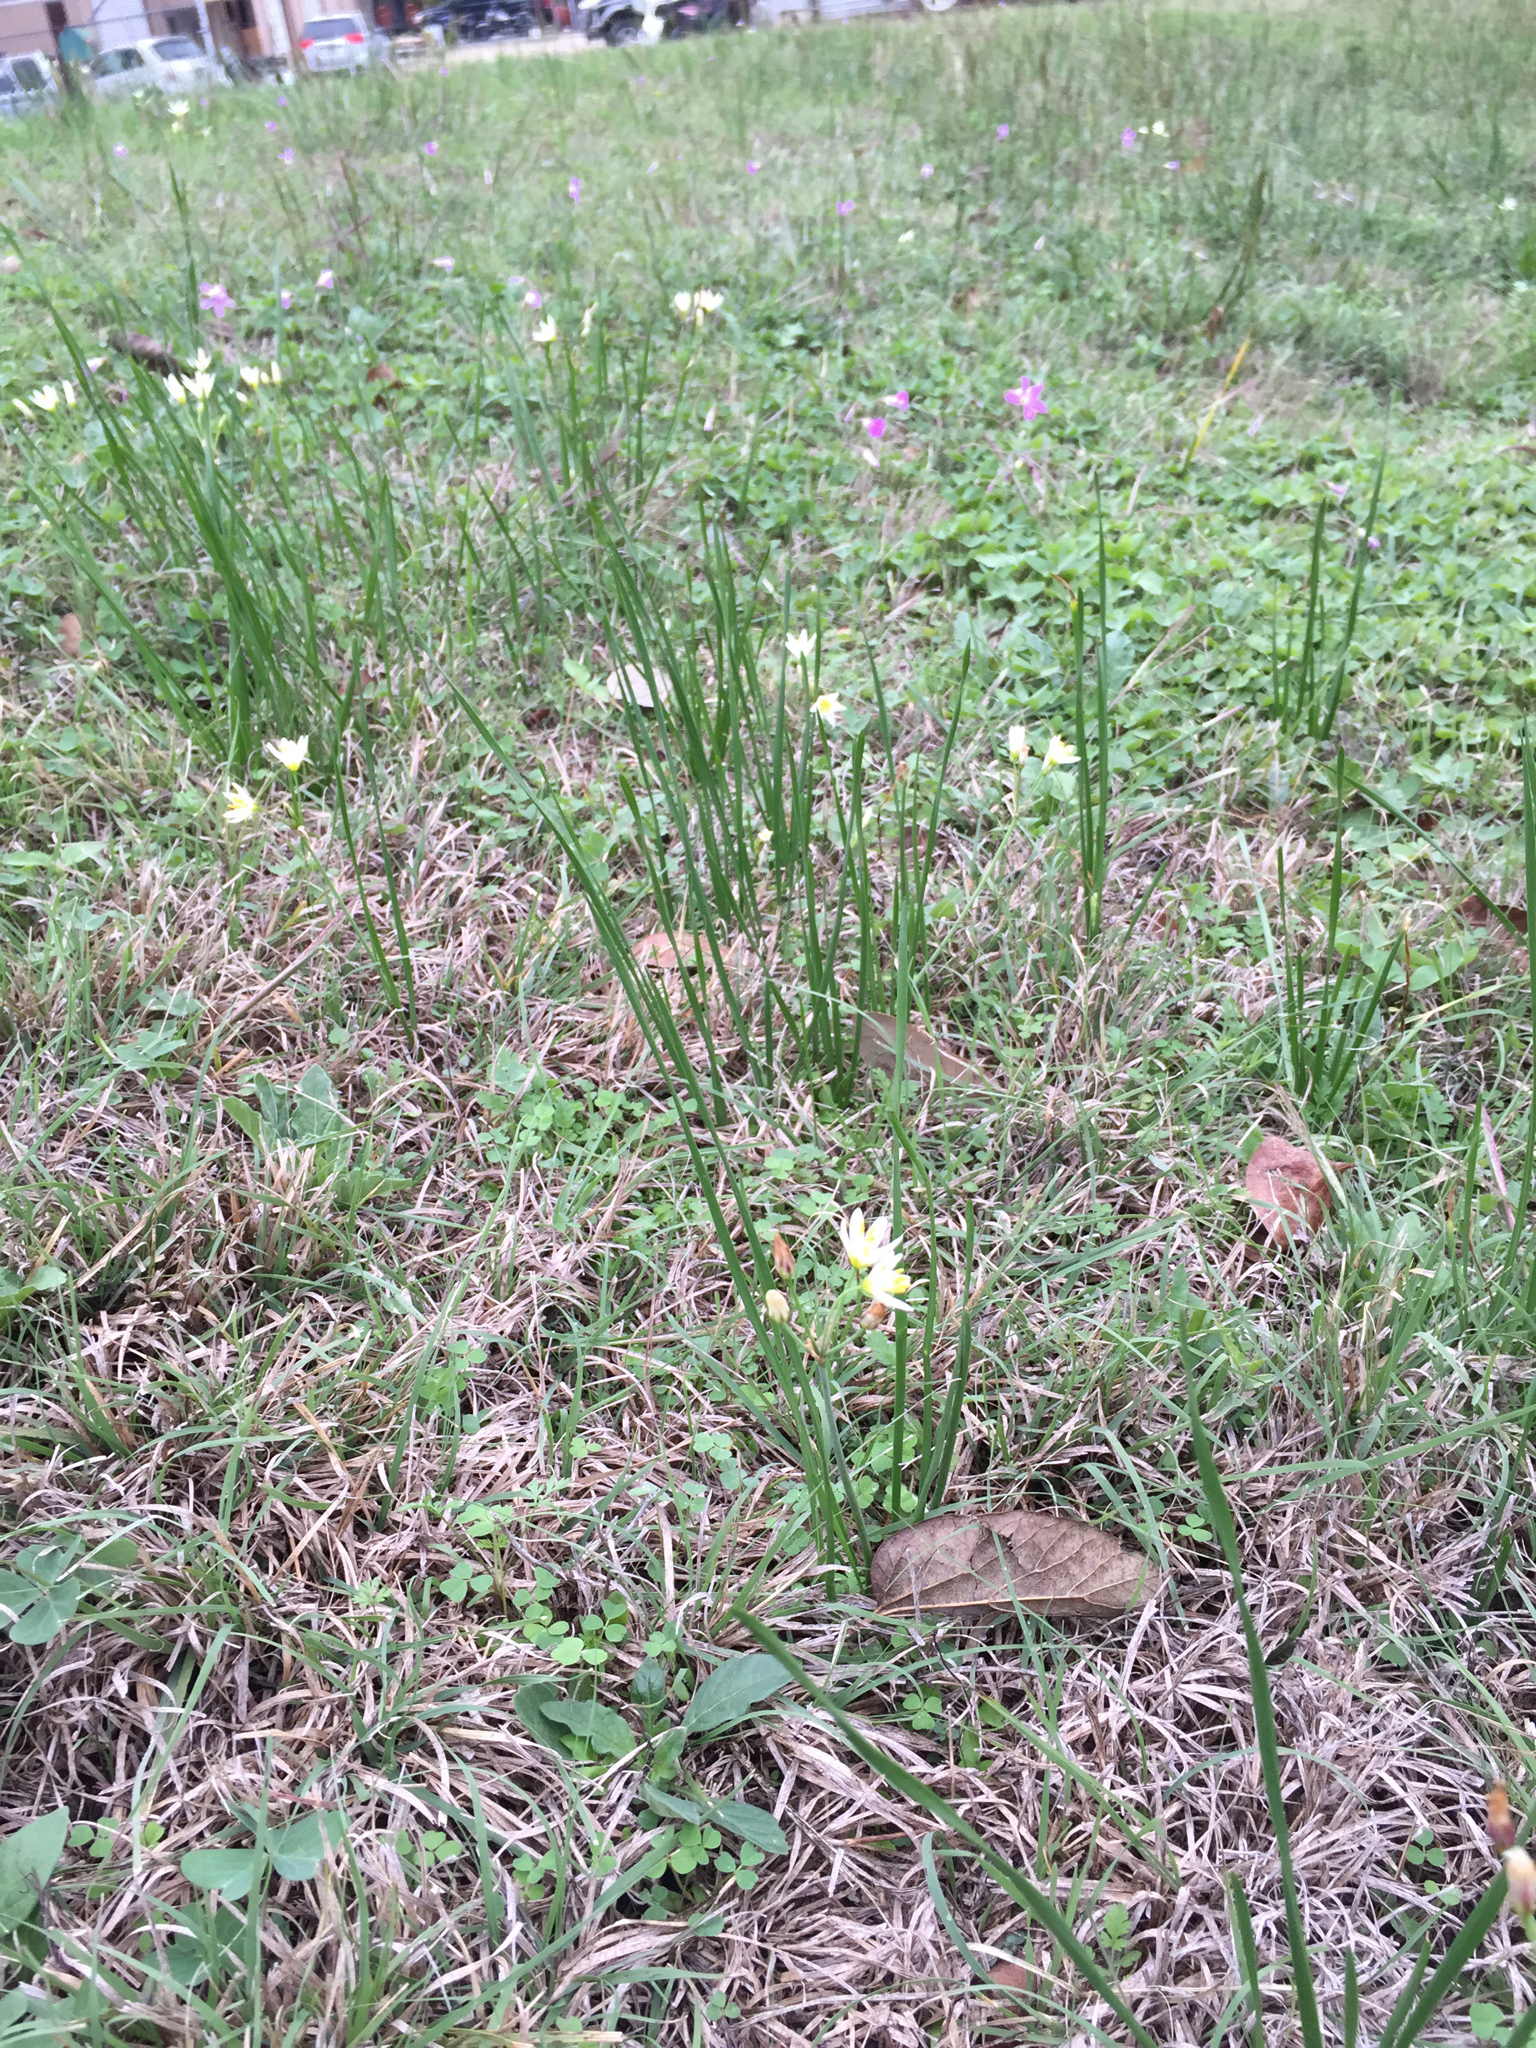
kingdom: Plantae
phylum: Tracheophyta
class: Liliopsida
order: Asparagales
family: Amaryllidaceae
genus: Nothoscordum
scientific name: Nothoscordum bivalve
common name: Crow-poison
